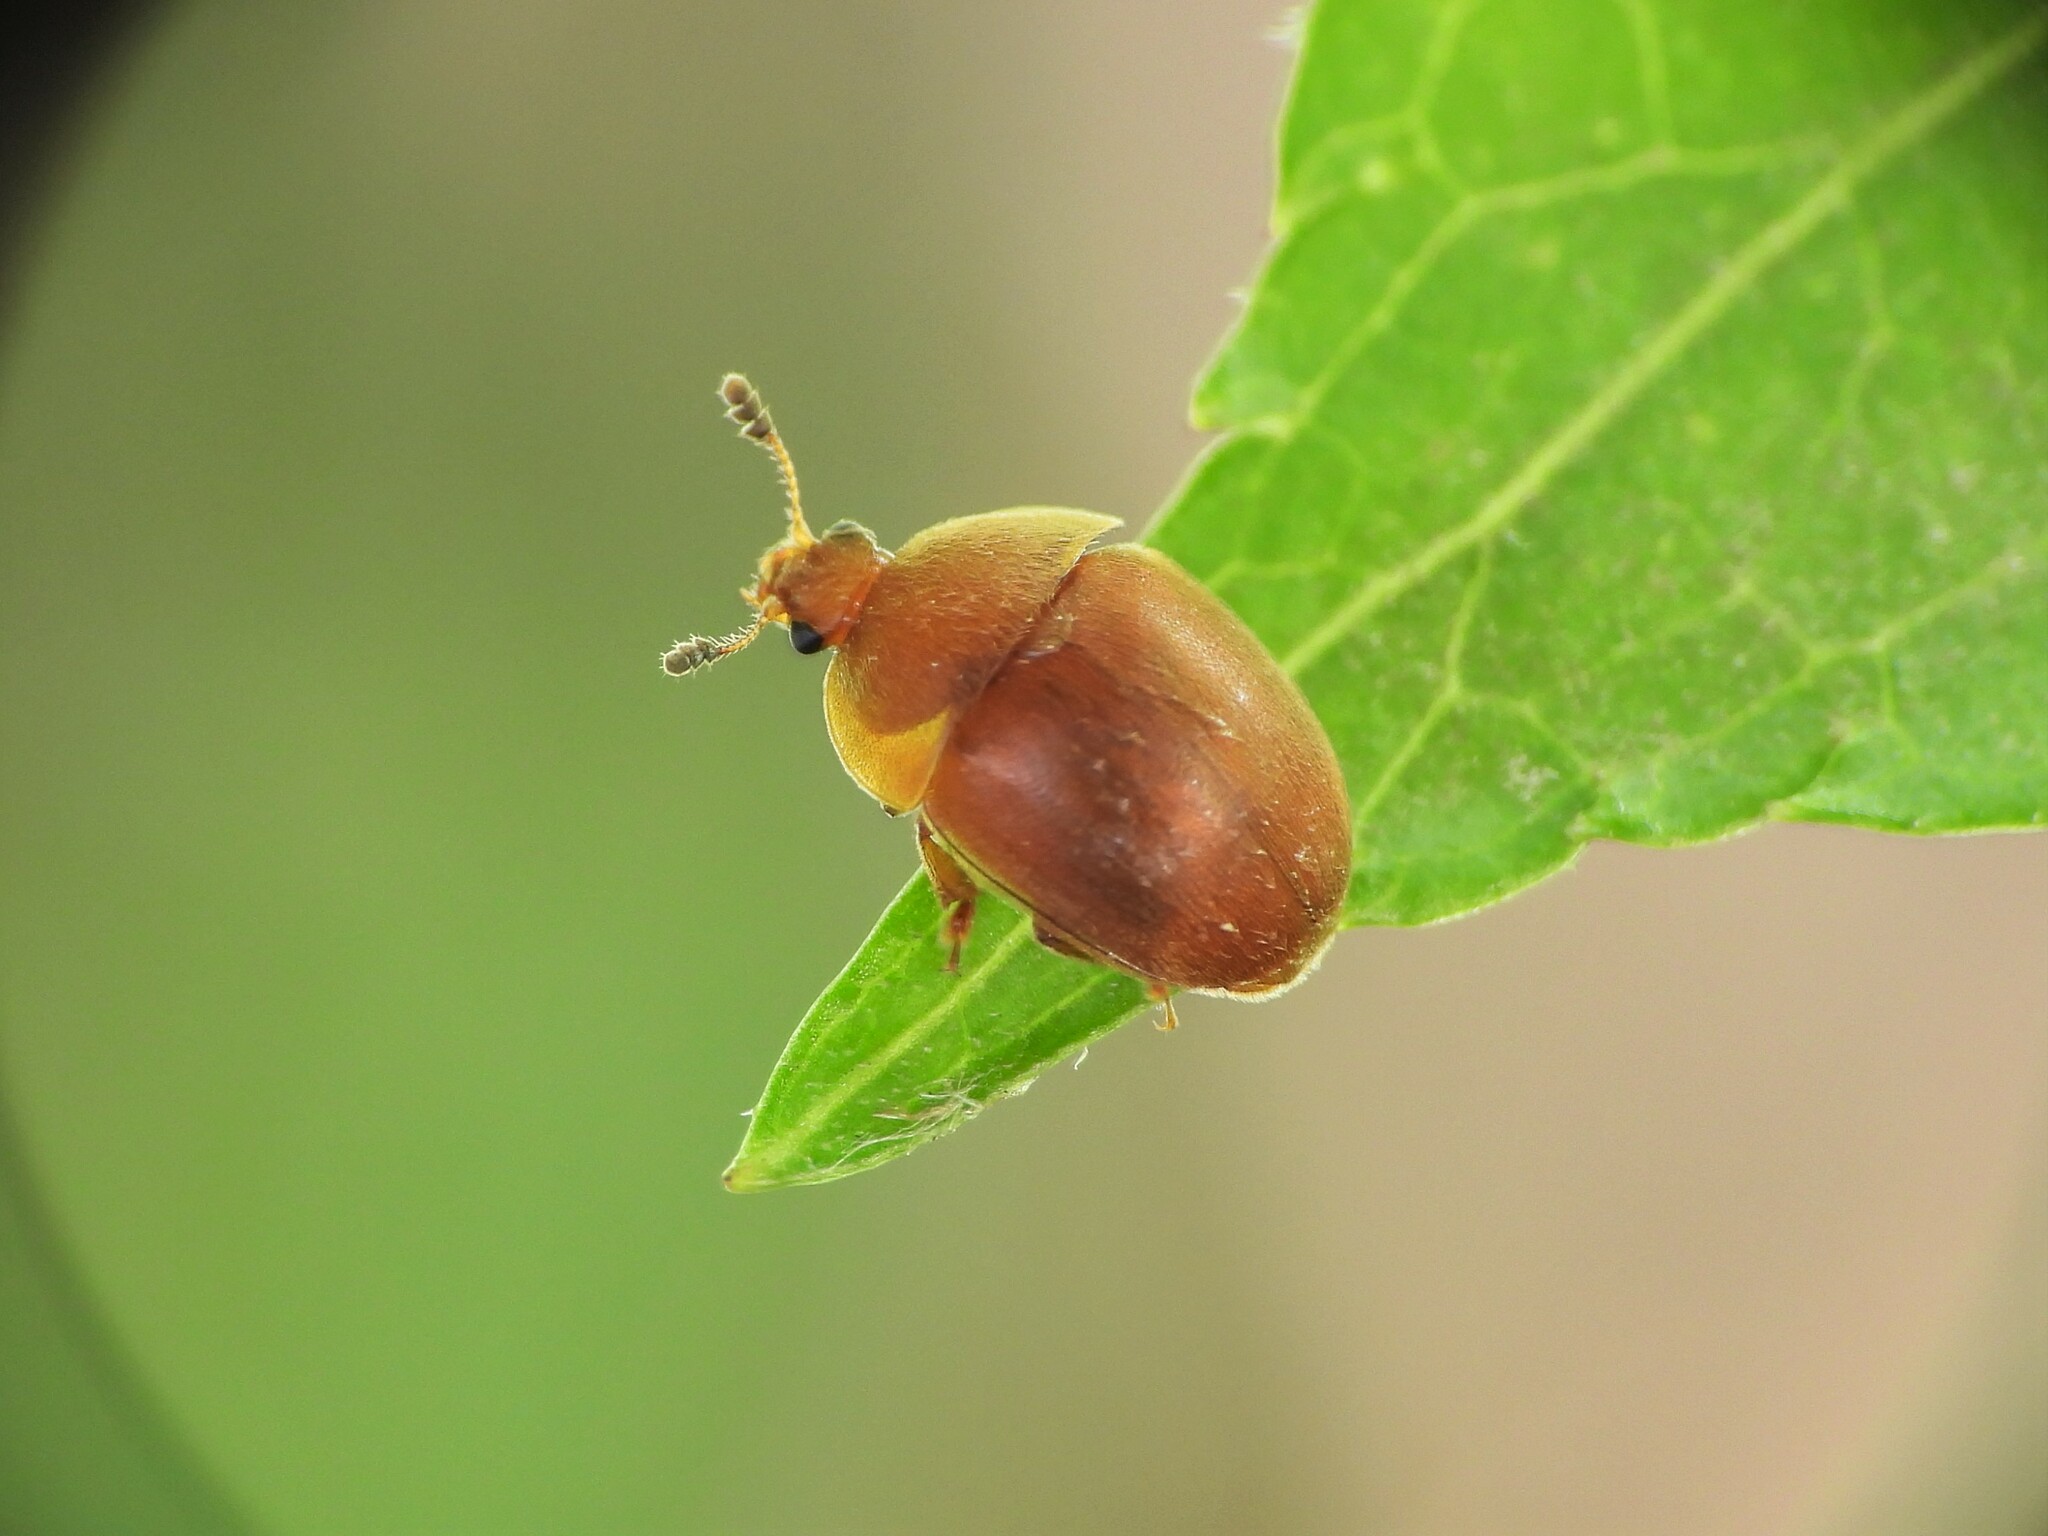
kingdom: Animalia
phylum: Arthropoda
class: Insecta
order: Coleoptera
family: Nitidulidae
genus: Cychramus
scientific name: Cychramus luteus
